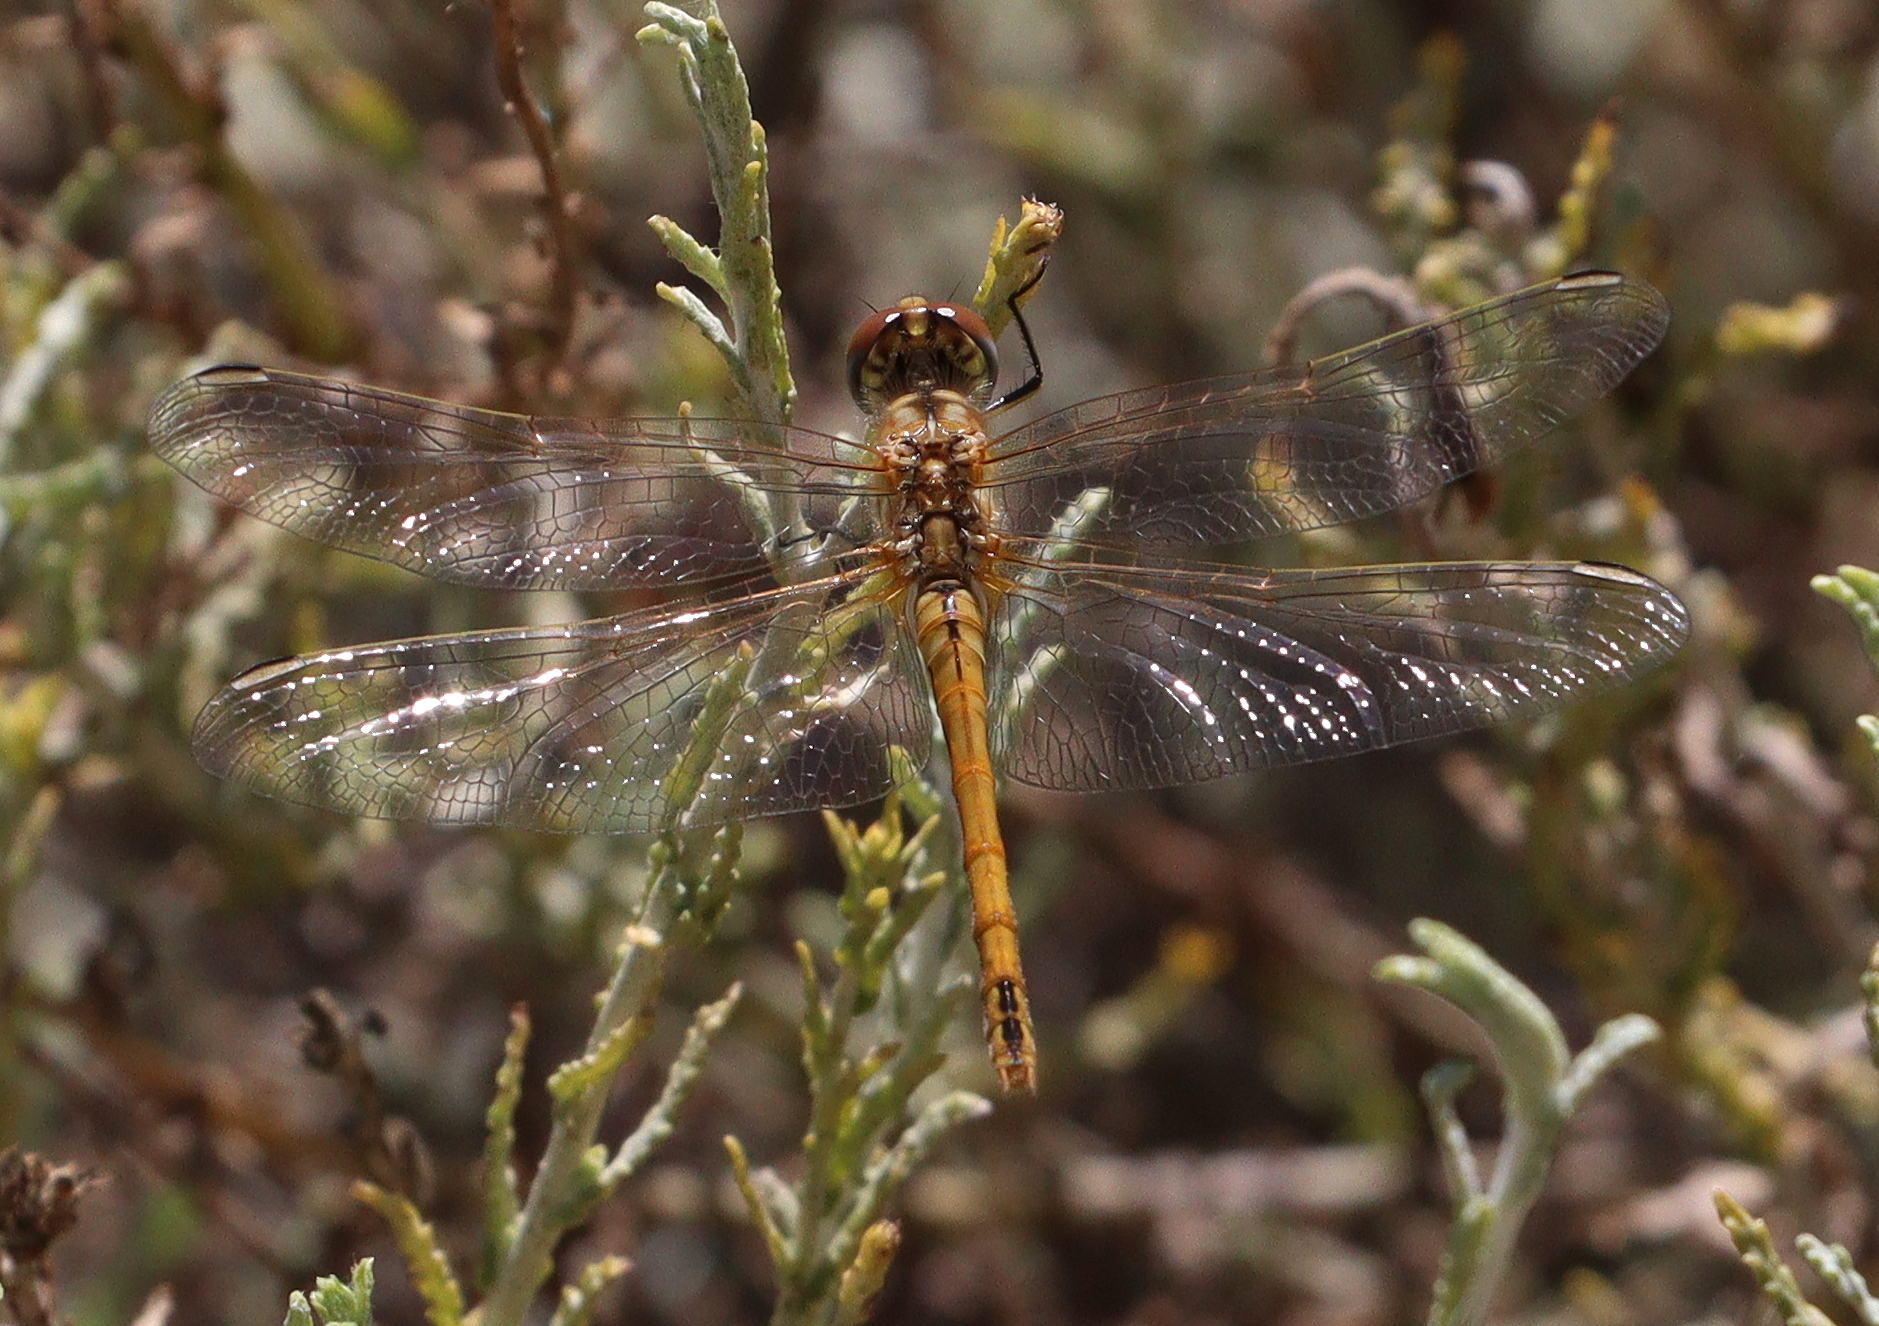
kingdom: Animalia
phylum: Arthropoda
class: Insecta
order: Odonata
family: Libellulidae
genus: Sympetrum
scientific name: Sympetrum fonscolombii
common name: Red-veined darter
